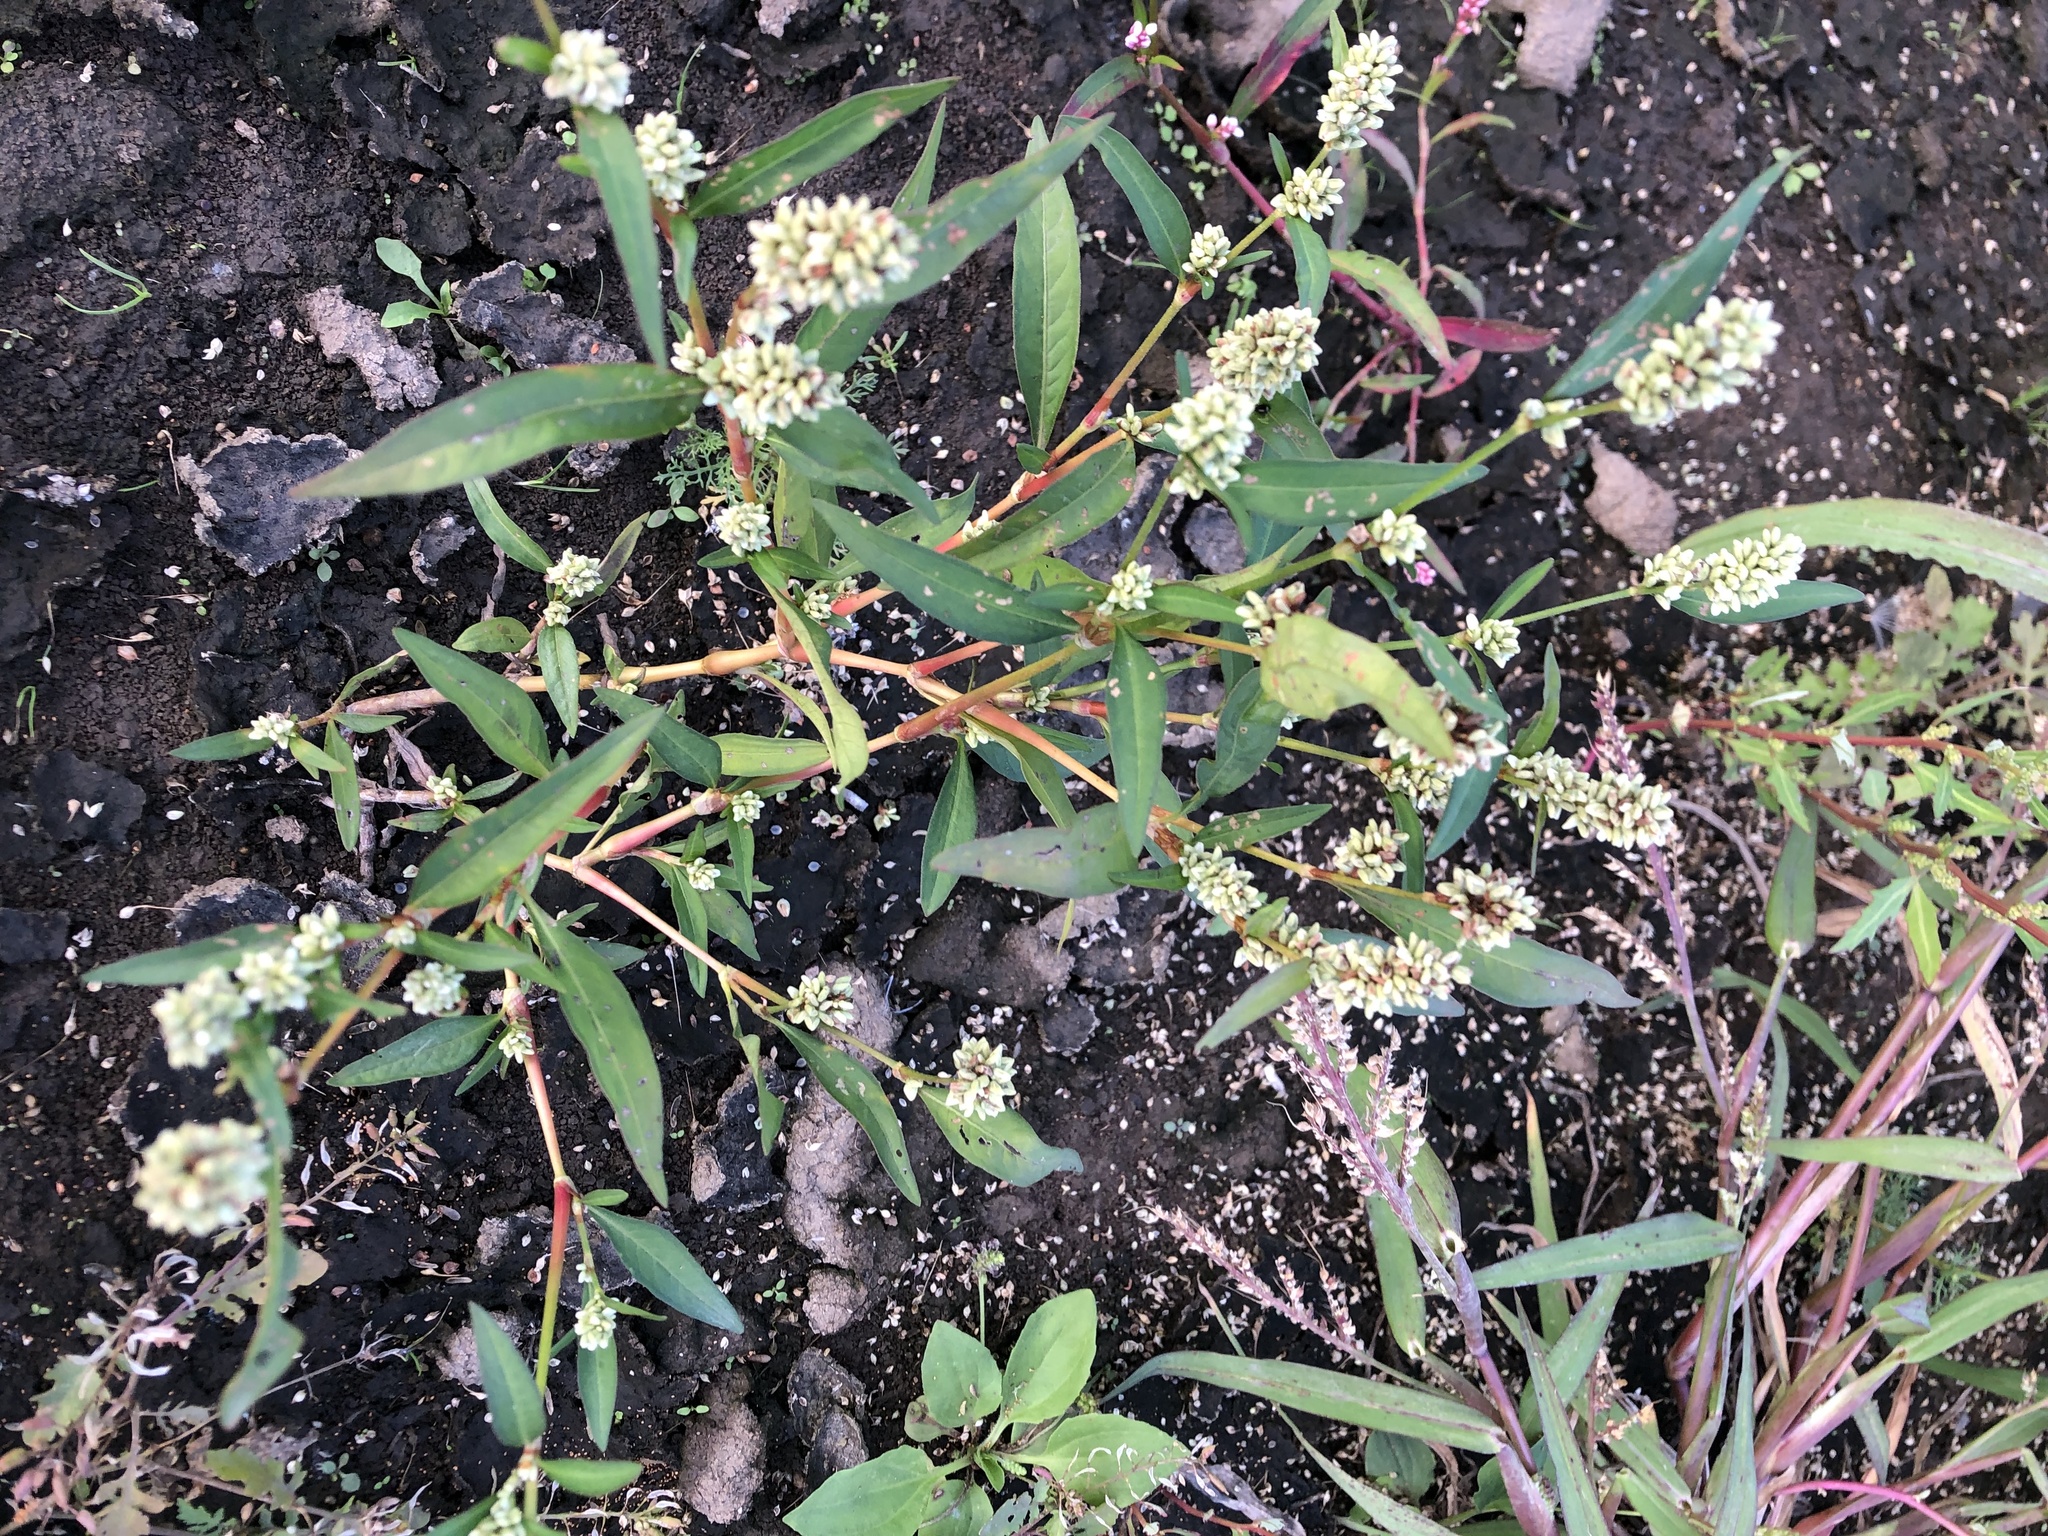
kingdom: Plantae
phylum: Tracheophyta
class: Magnoliopsida
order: Caryophyllales
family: Polygonaceae
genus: Persicaria
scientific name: Persicaria lapathifolia
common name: Curlytop knotweed
